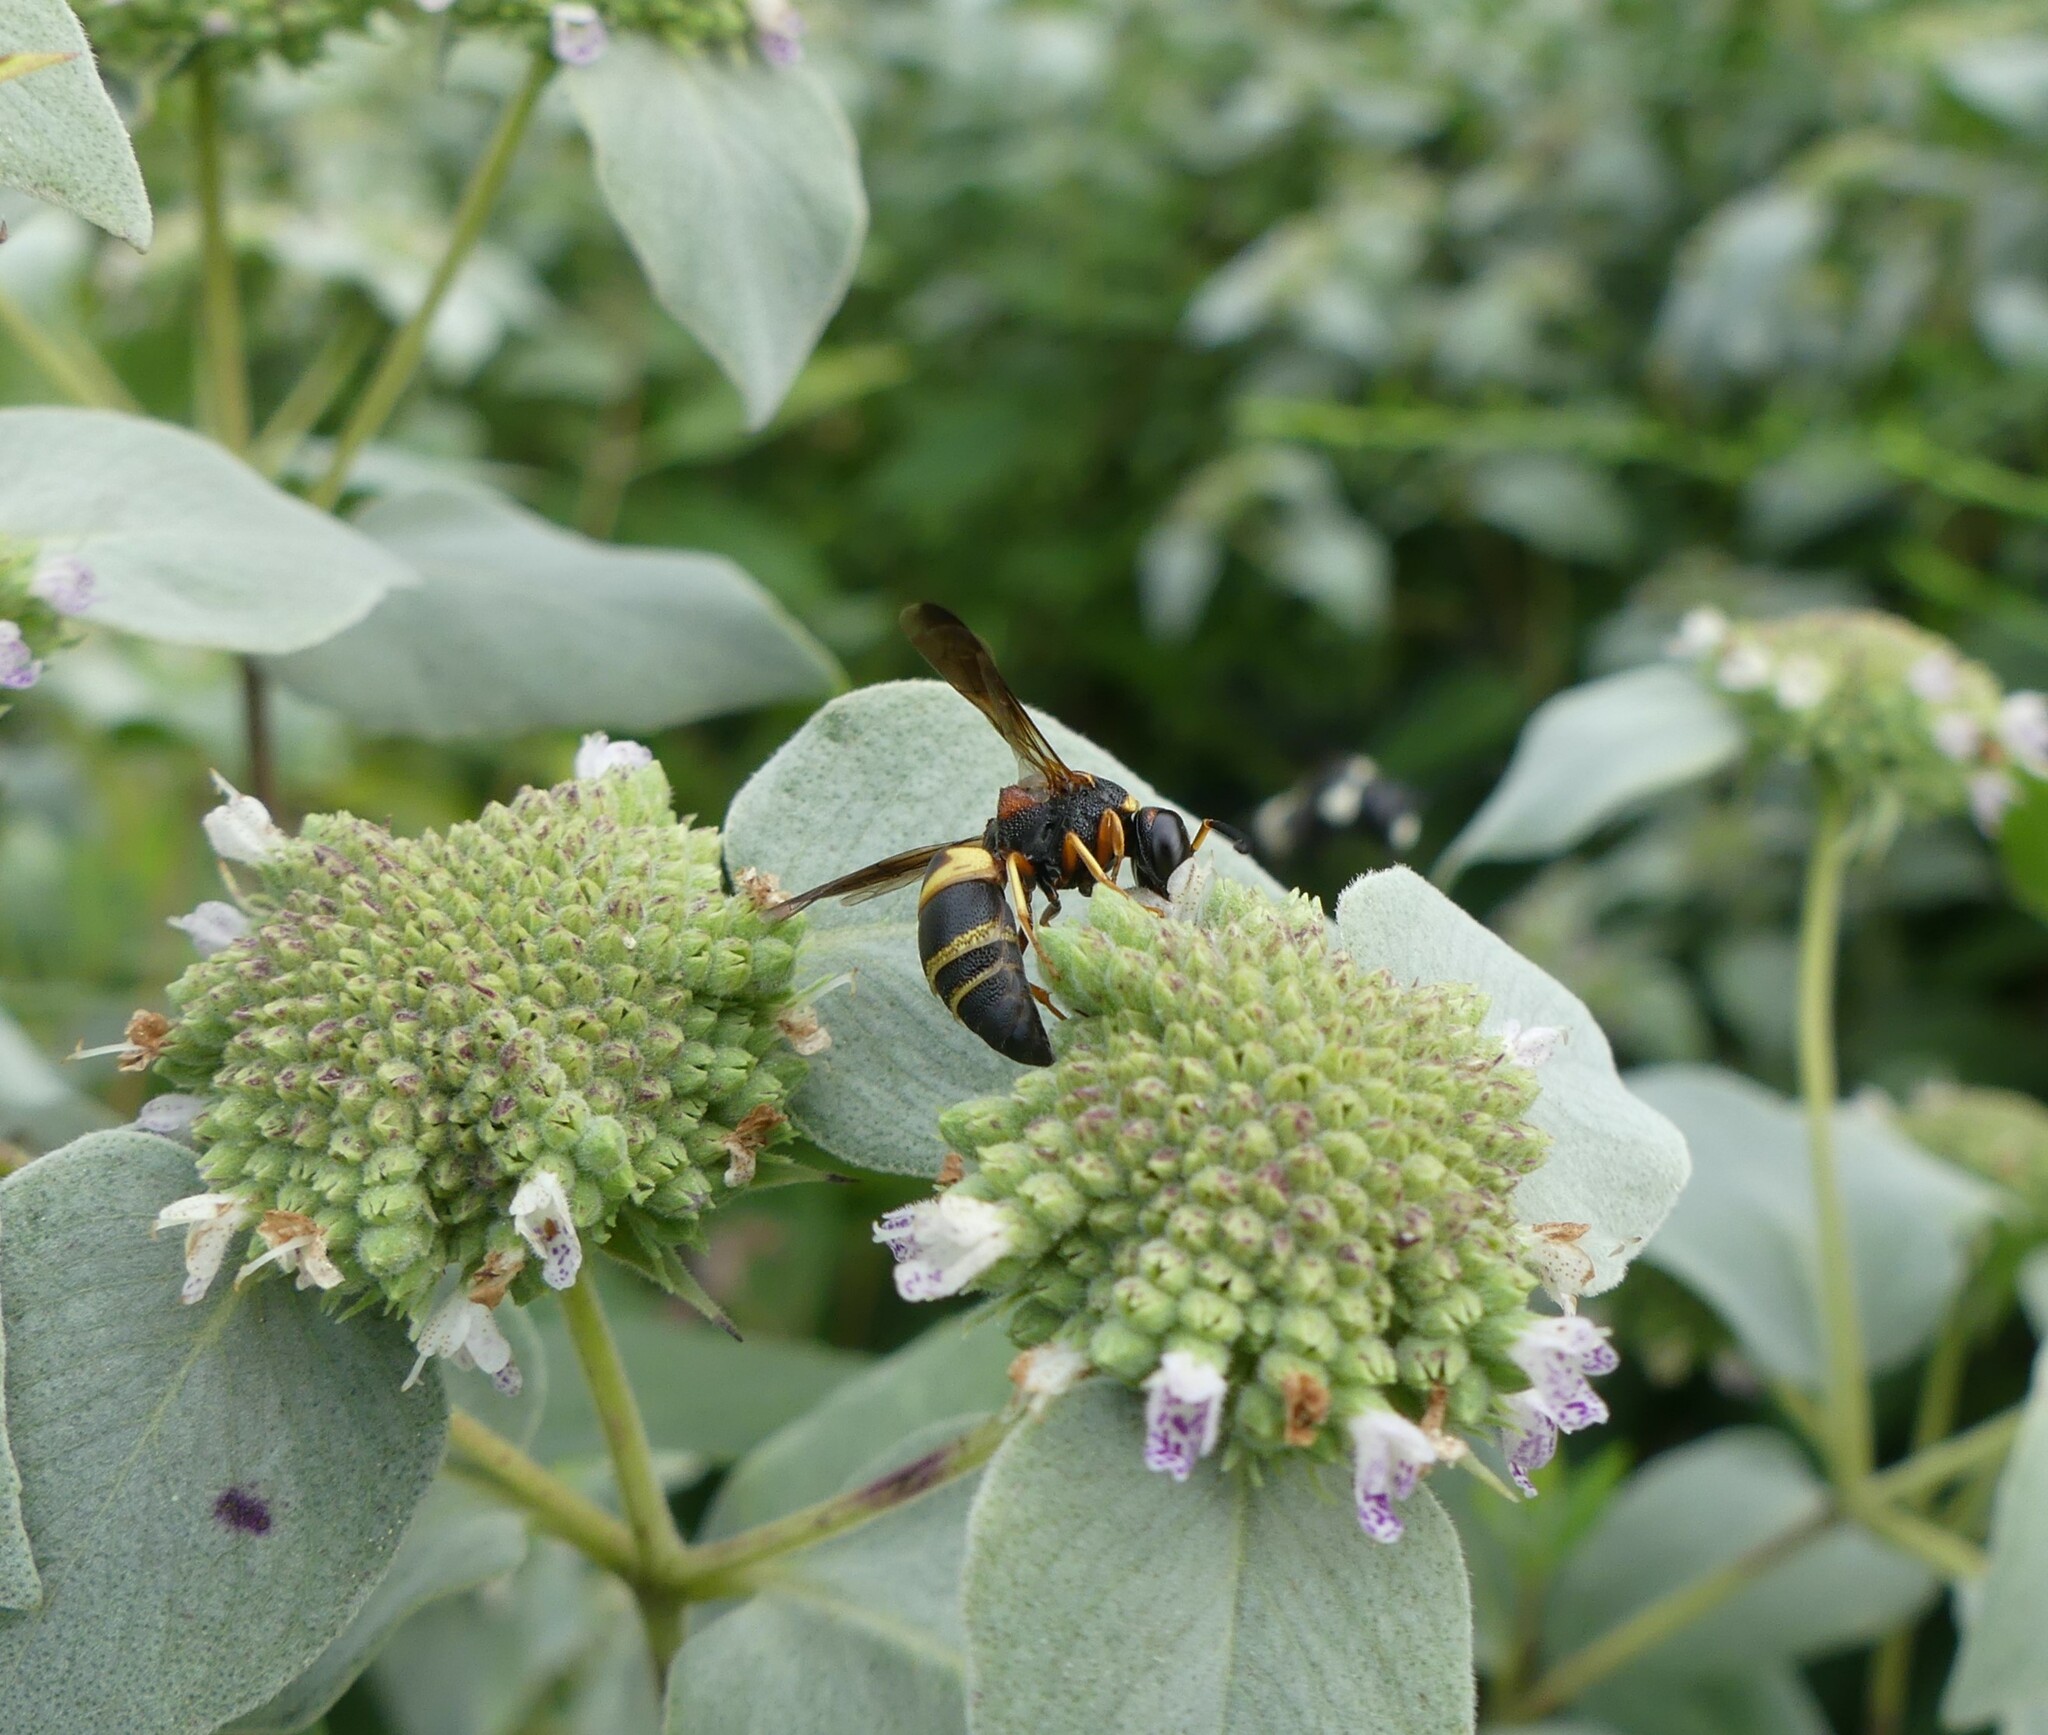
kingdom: Animalia
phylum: Arthropoda
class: Insecta
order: Hymenoptera
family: Eumenidae
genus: Euodynerus
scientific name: Euodynerus hidalgo
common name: Wasp
